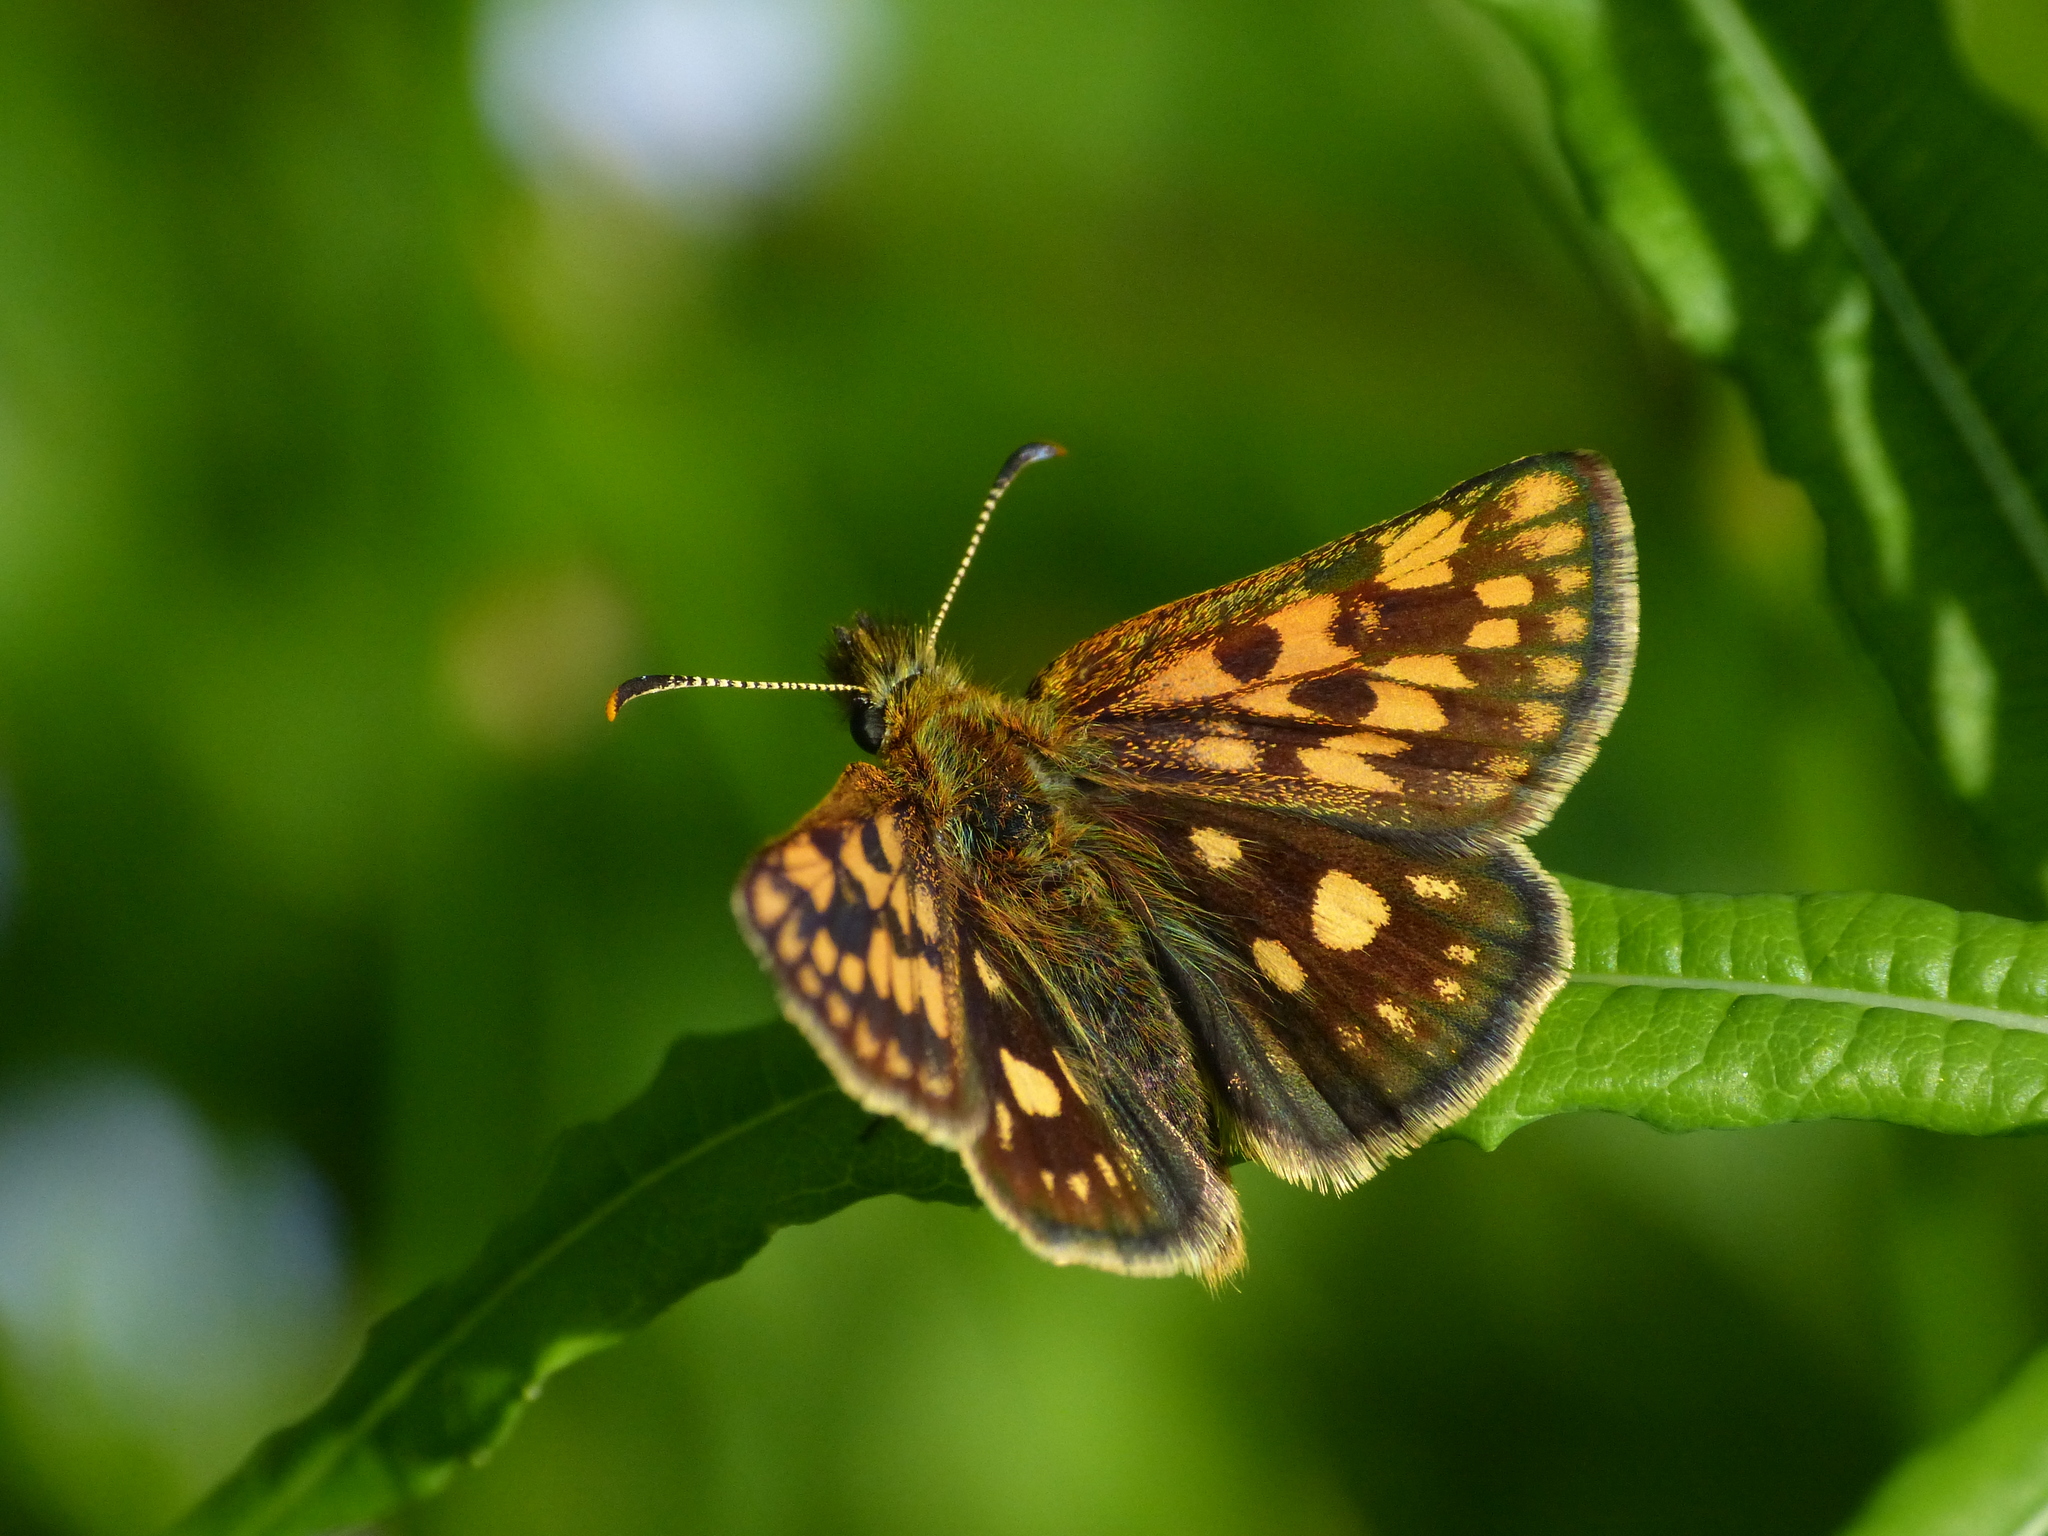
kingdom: Animalia
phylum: Arthropoda
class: Insecta
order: Lepidoptera
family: Hesperiidae
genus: Carterocephalus
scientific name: Carterocephalus palaemon
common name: Chequered skipper
